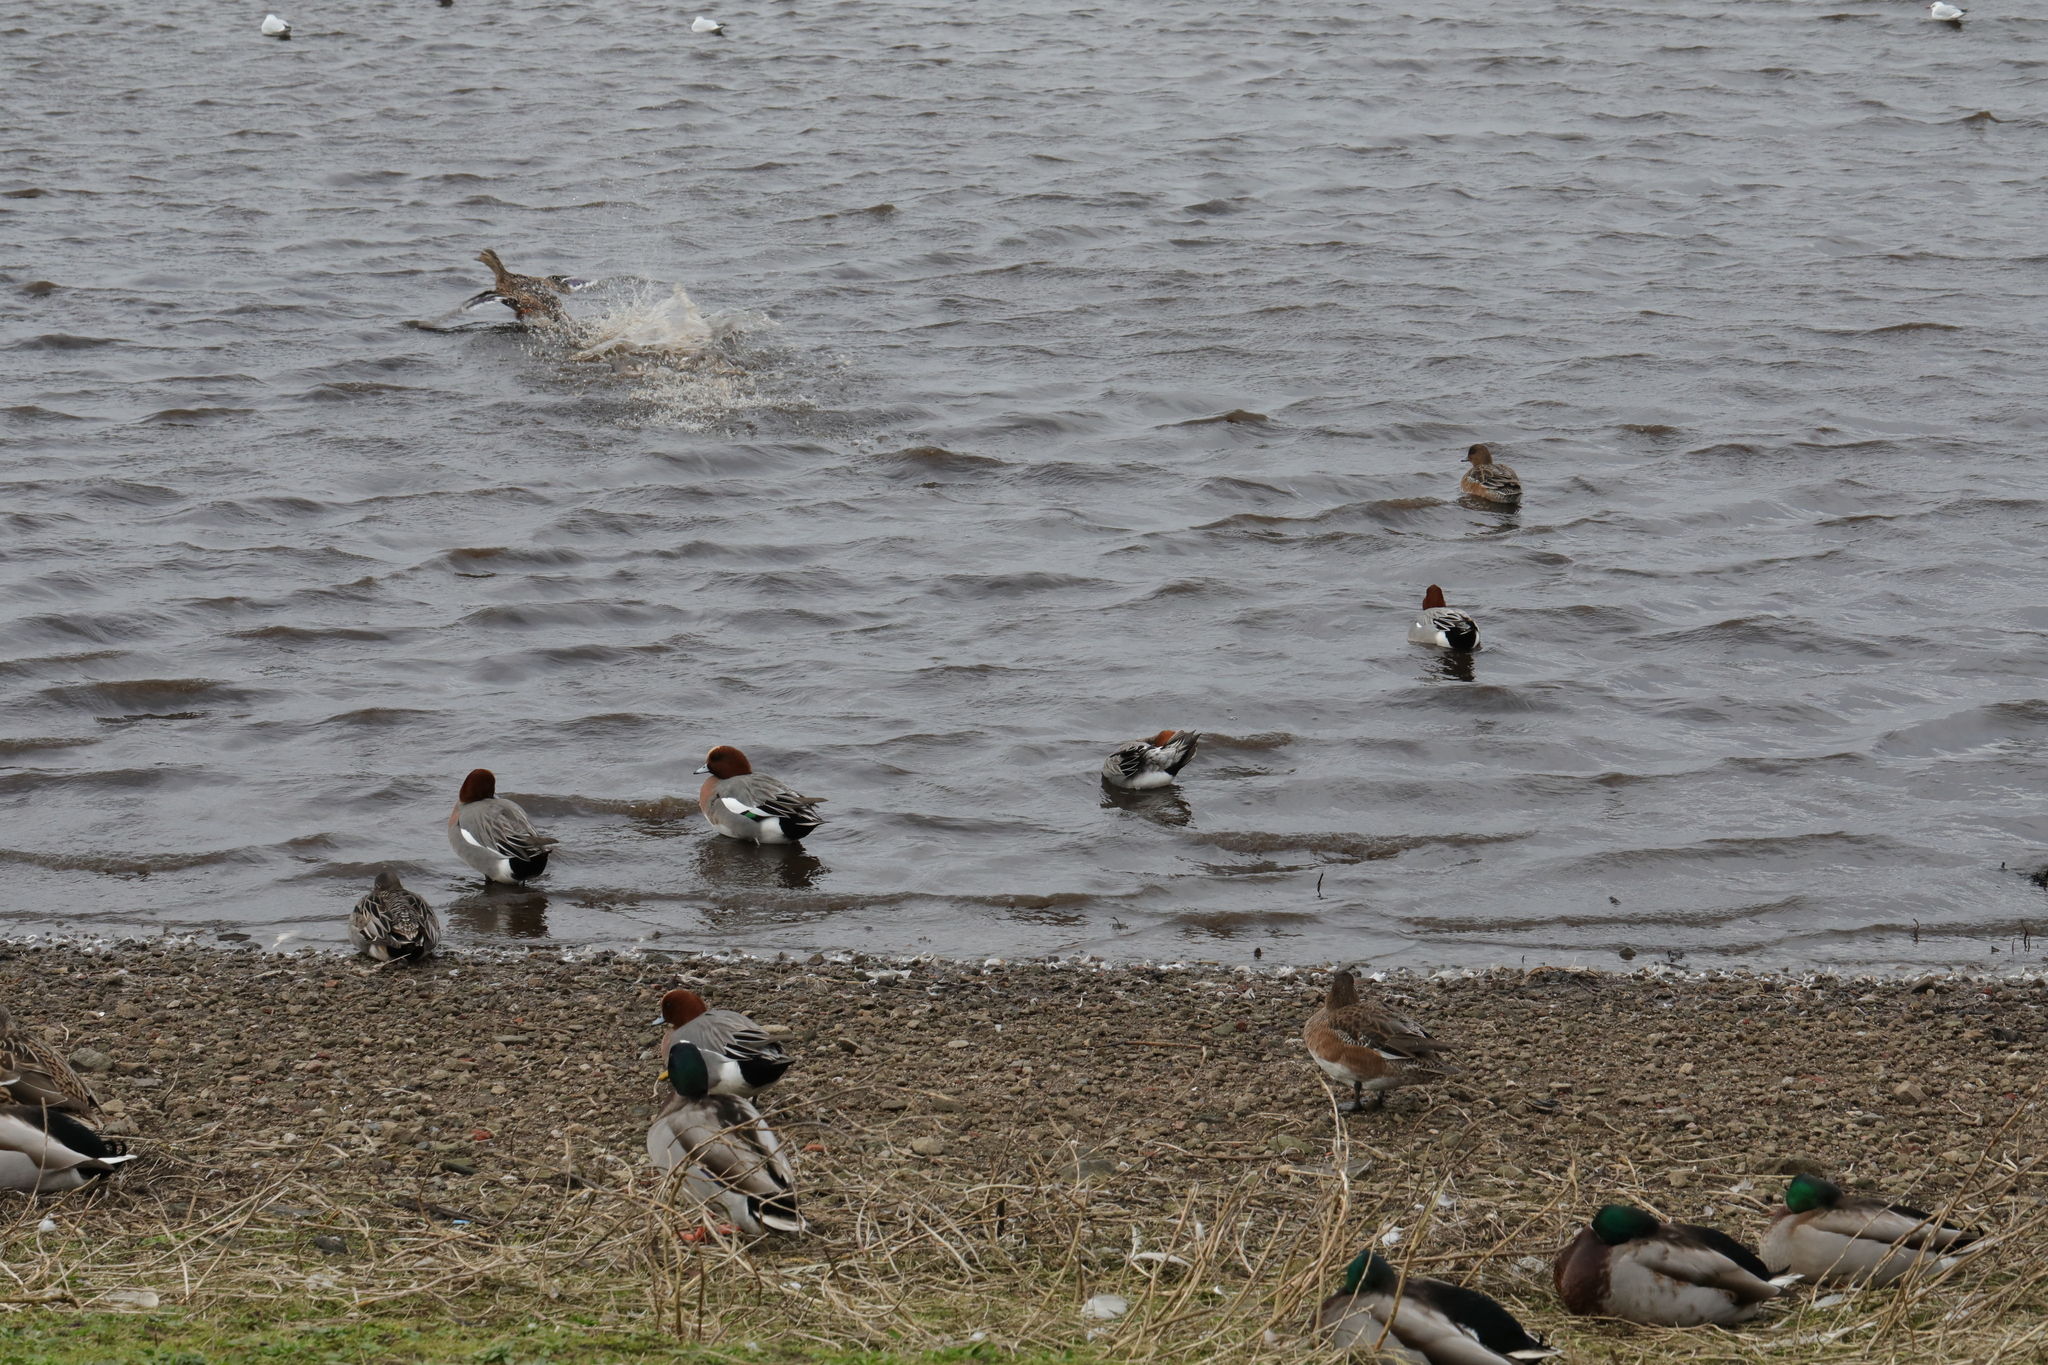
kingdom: Animalia
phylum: Chordata
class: Aves
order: Anseriformes
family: Anatidae
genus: Mareca
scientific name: Mareca penelope
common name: Eurasian wigeon
